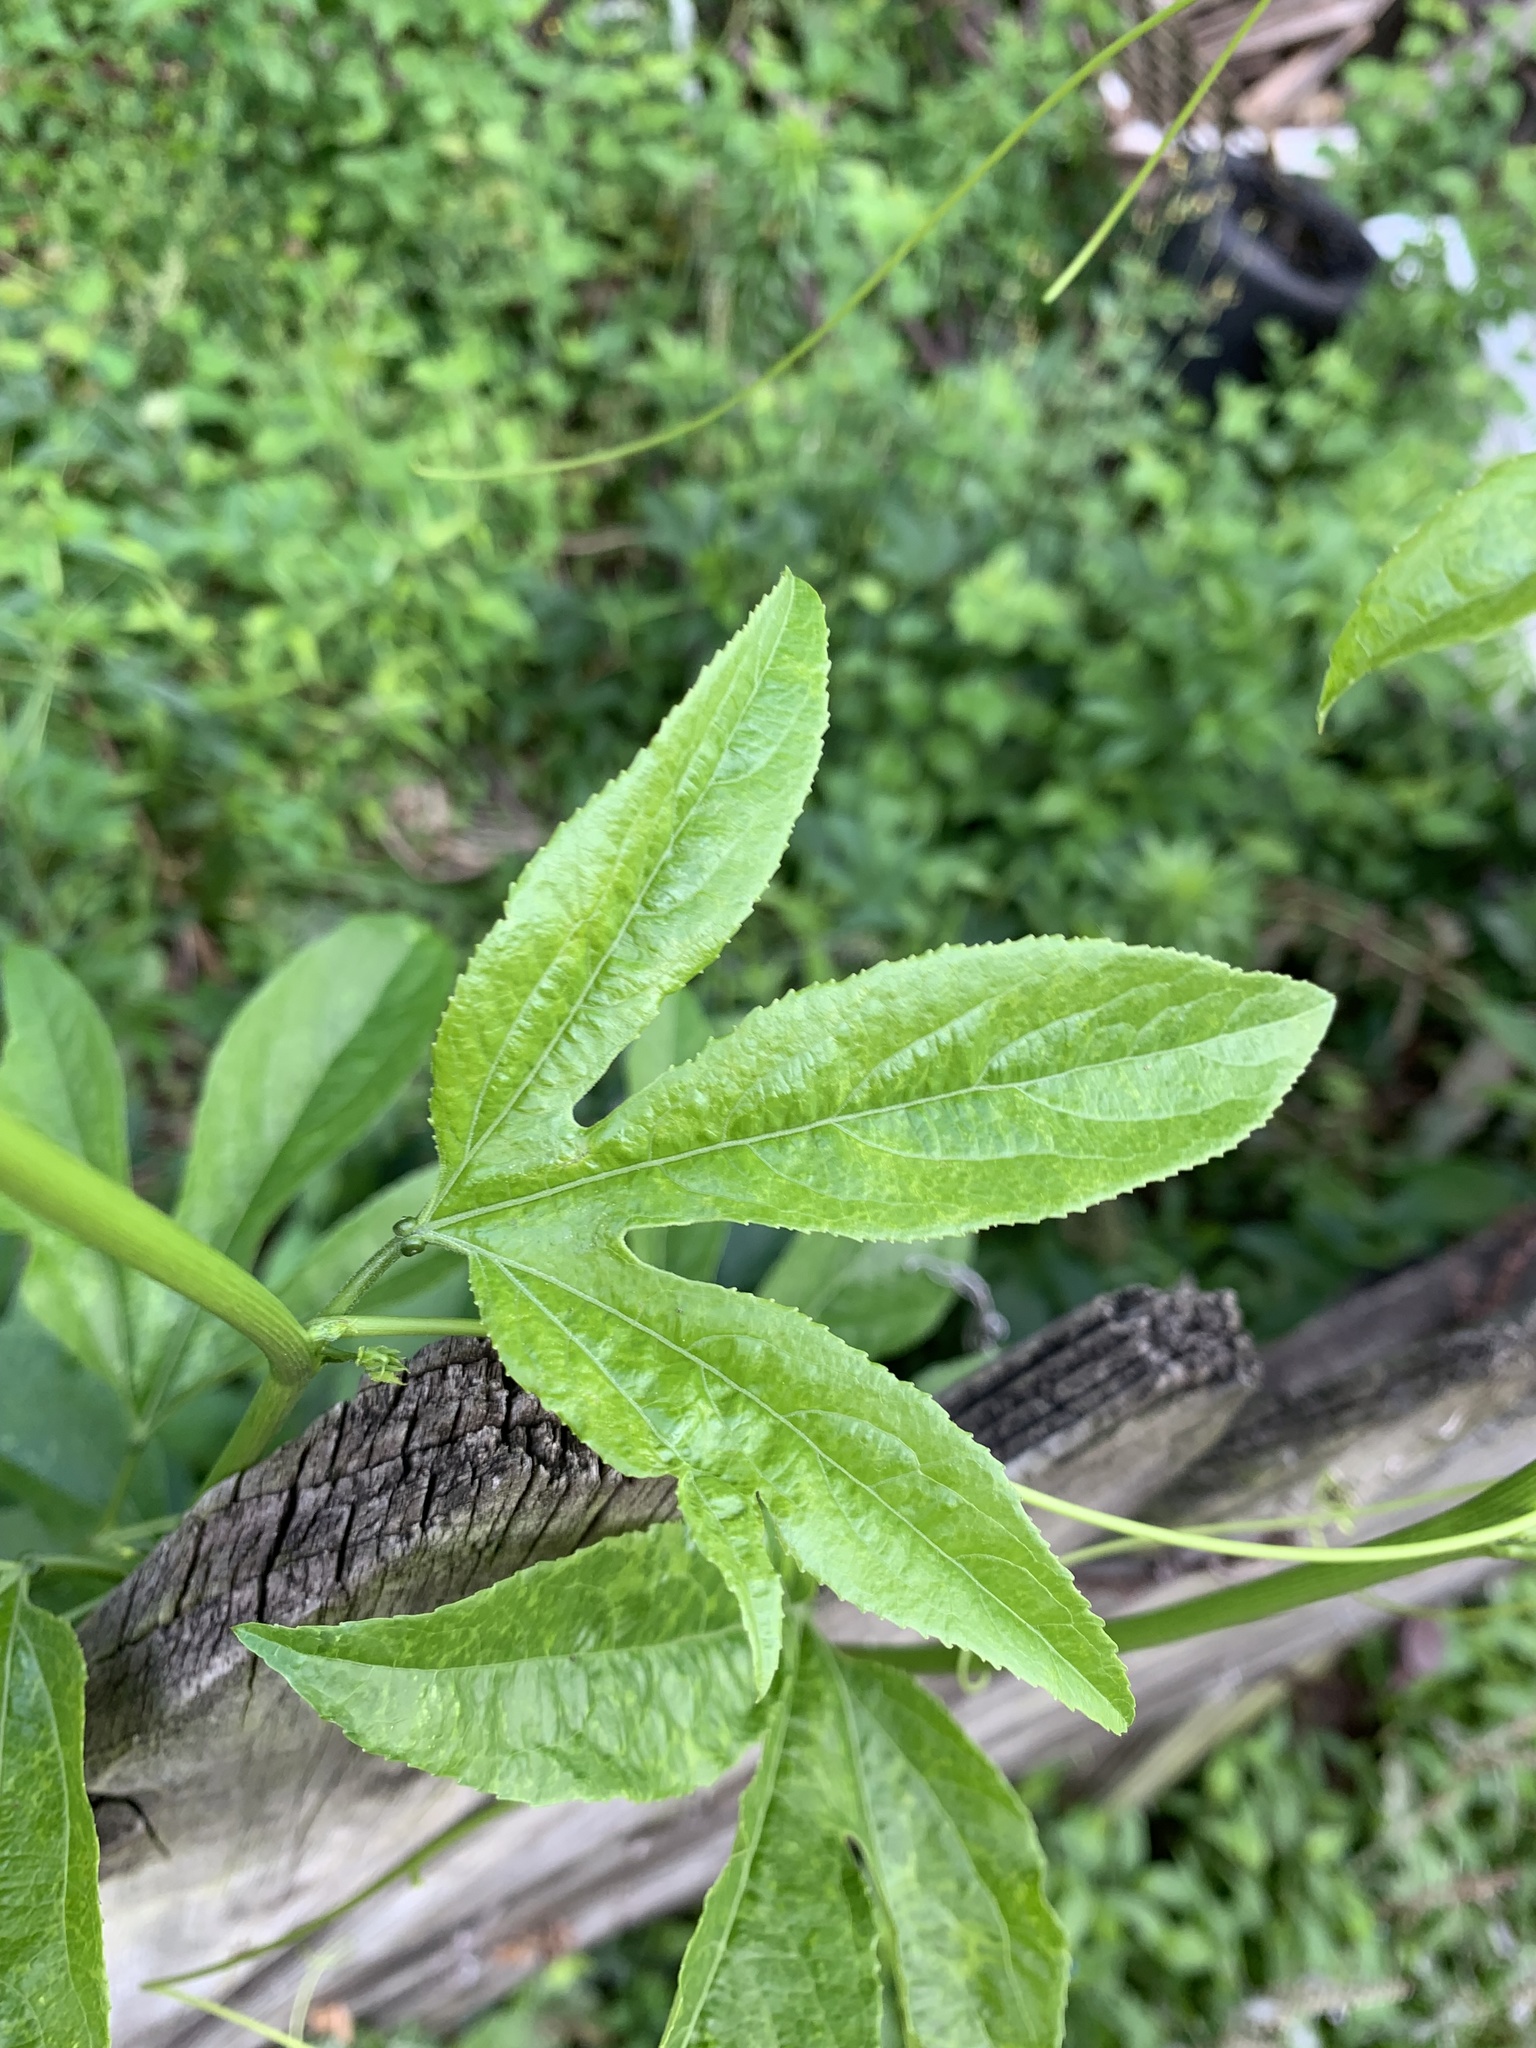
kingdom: Plantae
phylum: Tracheophyta
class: Magnoliopsida
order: Malpighiales
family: Passifloraceae
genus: Passiflora
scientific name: Passiflora incarnata
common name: Apricot-vine
